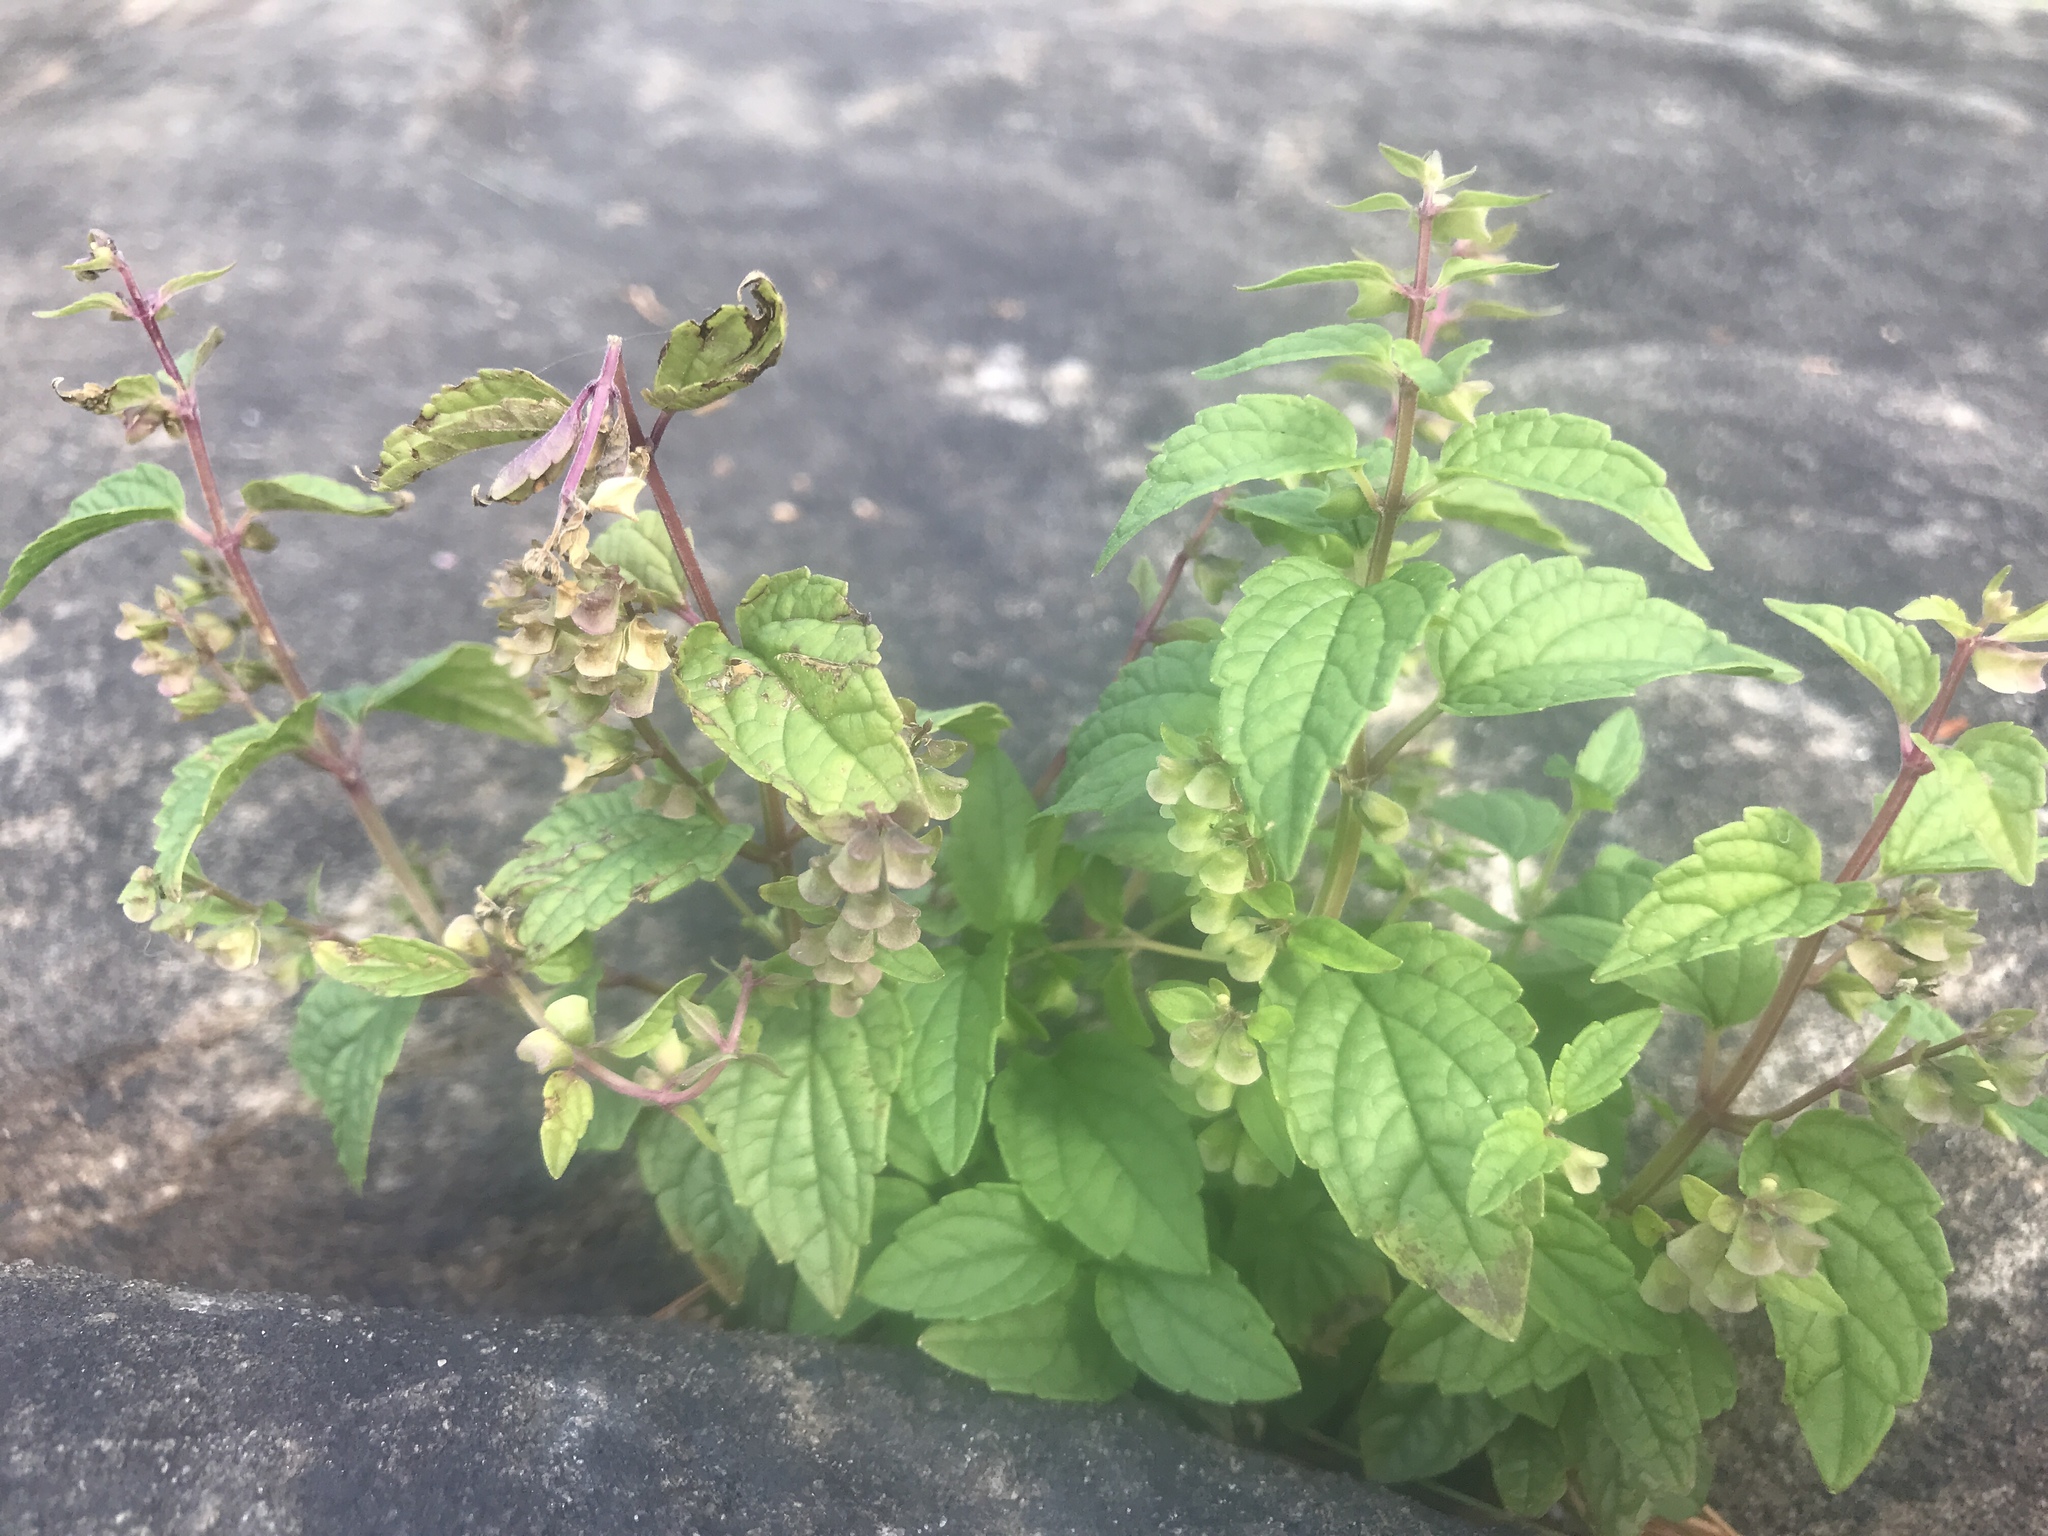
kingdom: Plantae
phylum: Tracheophyta
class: Magnoliopsida
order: Lamiales
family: Lamiaceae
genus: Scutellaria
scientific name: Scutellaria lateriflora
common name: Blue skullcap
